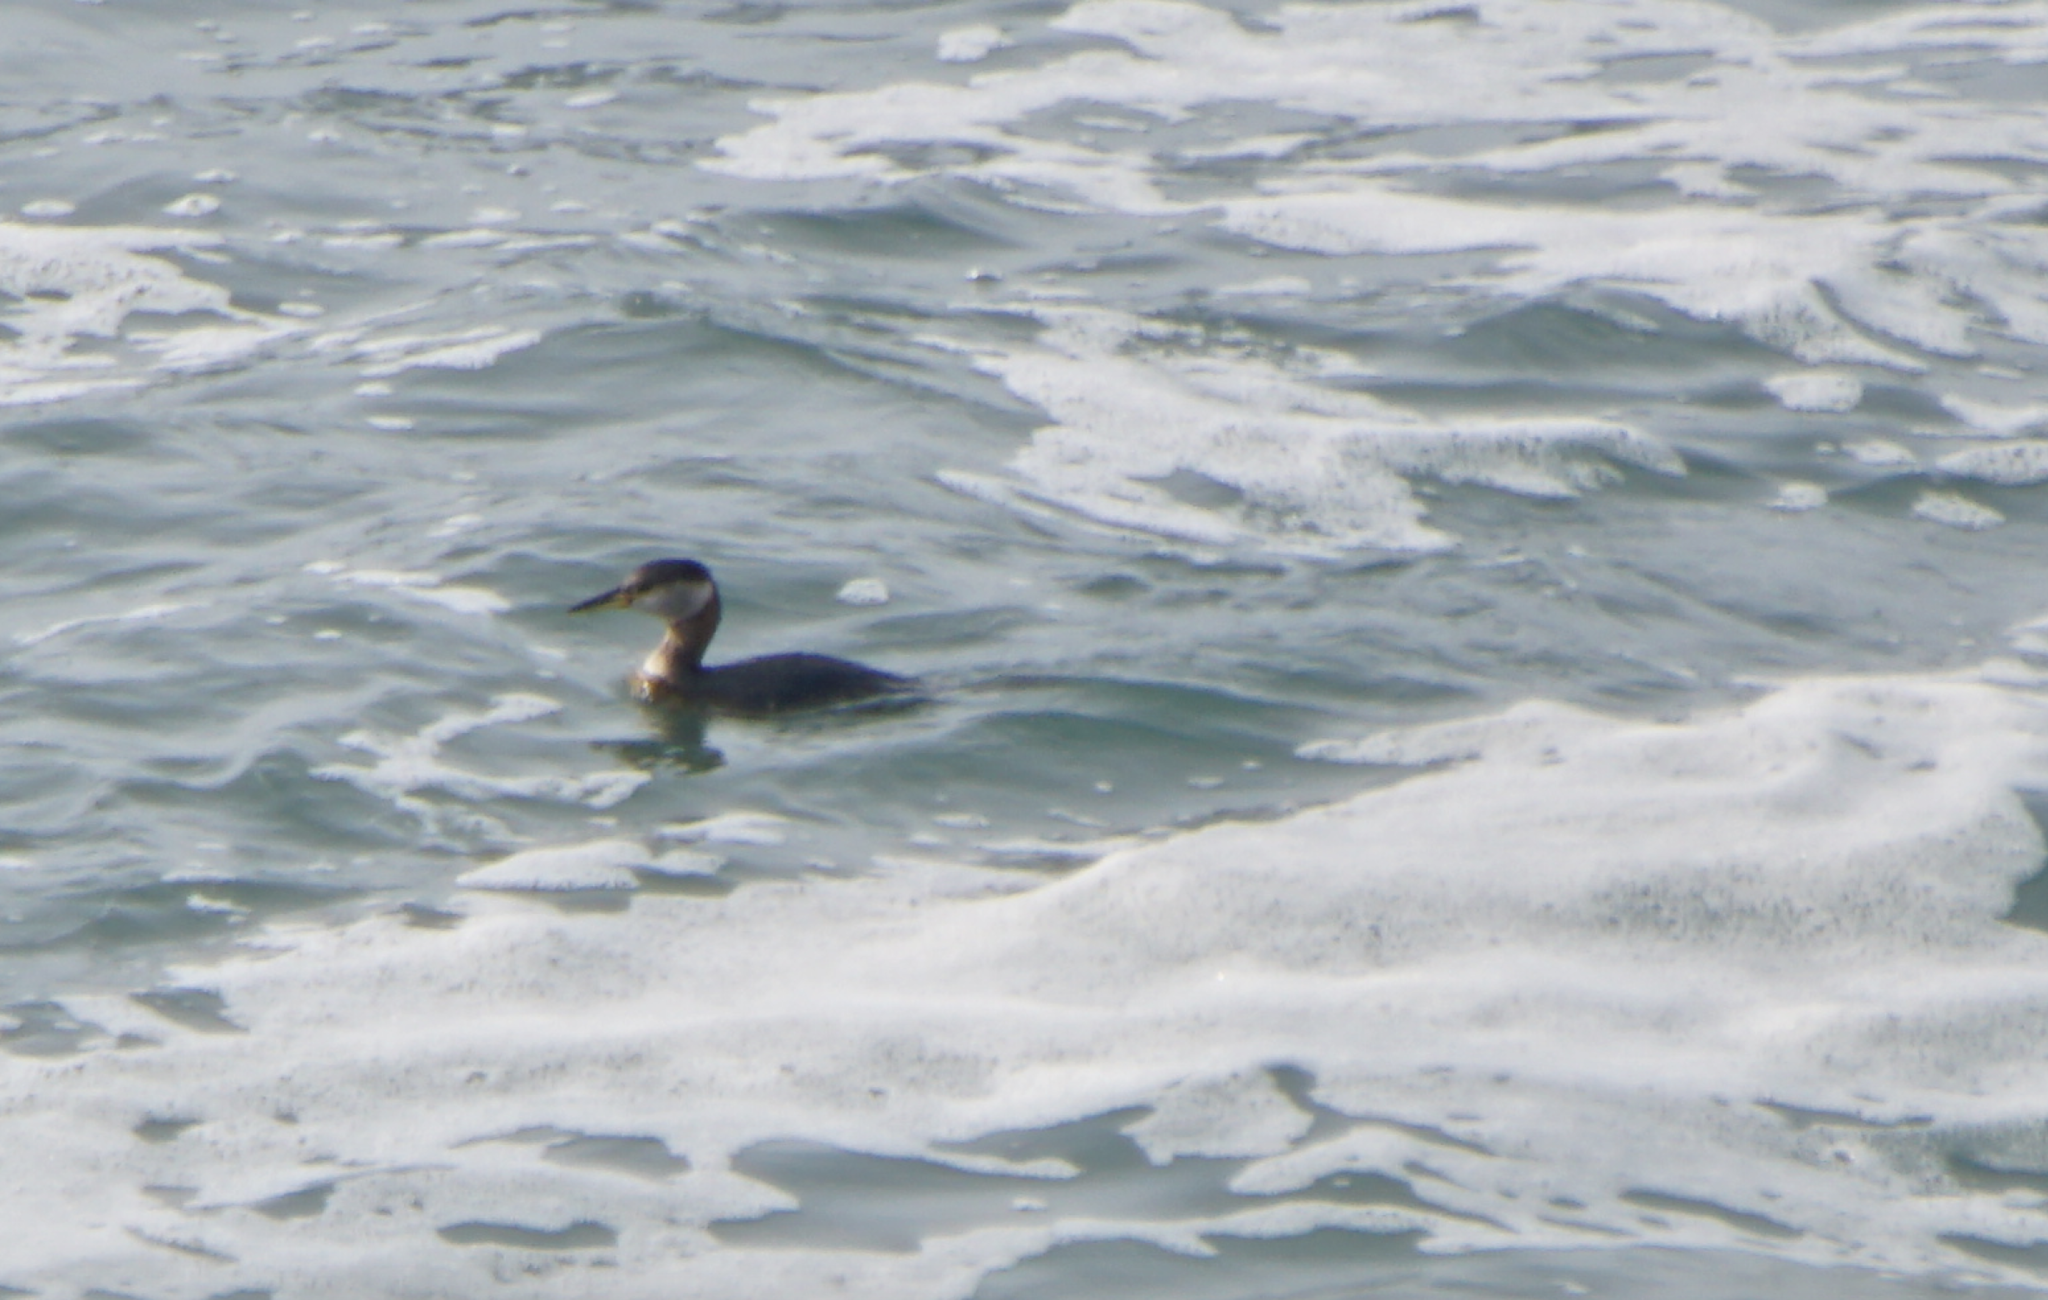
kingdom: Animalia
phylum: Chordata
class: Aves
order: Podicipediformes
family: Podicipedidae
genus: Podiceps
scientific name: Podiceps grisegena
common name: Red-necked grebe
